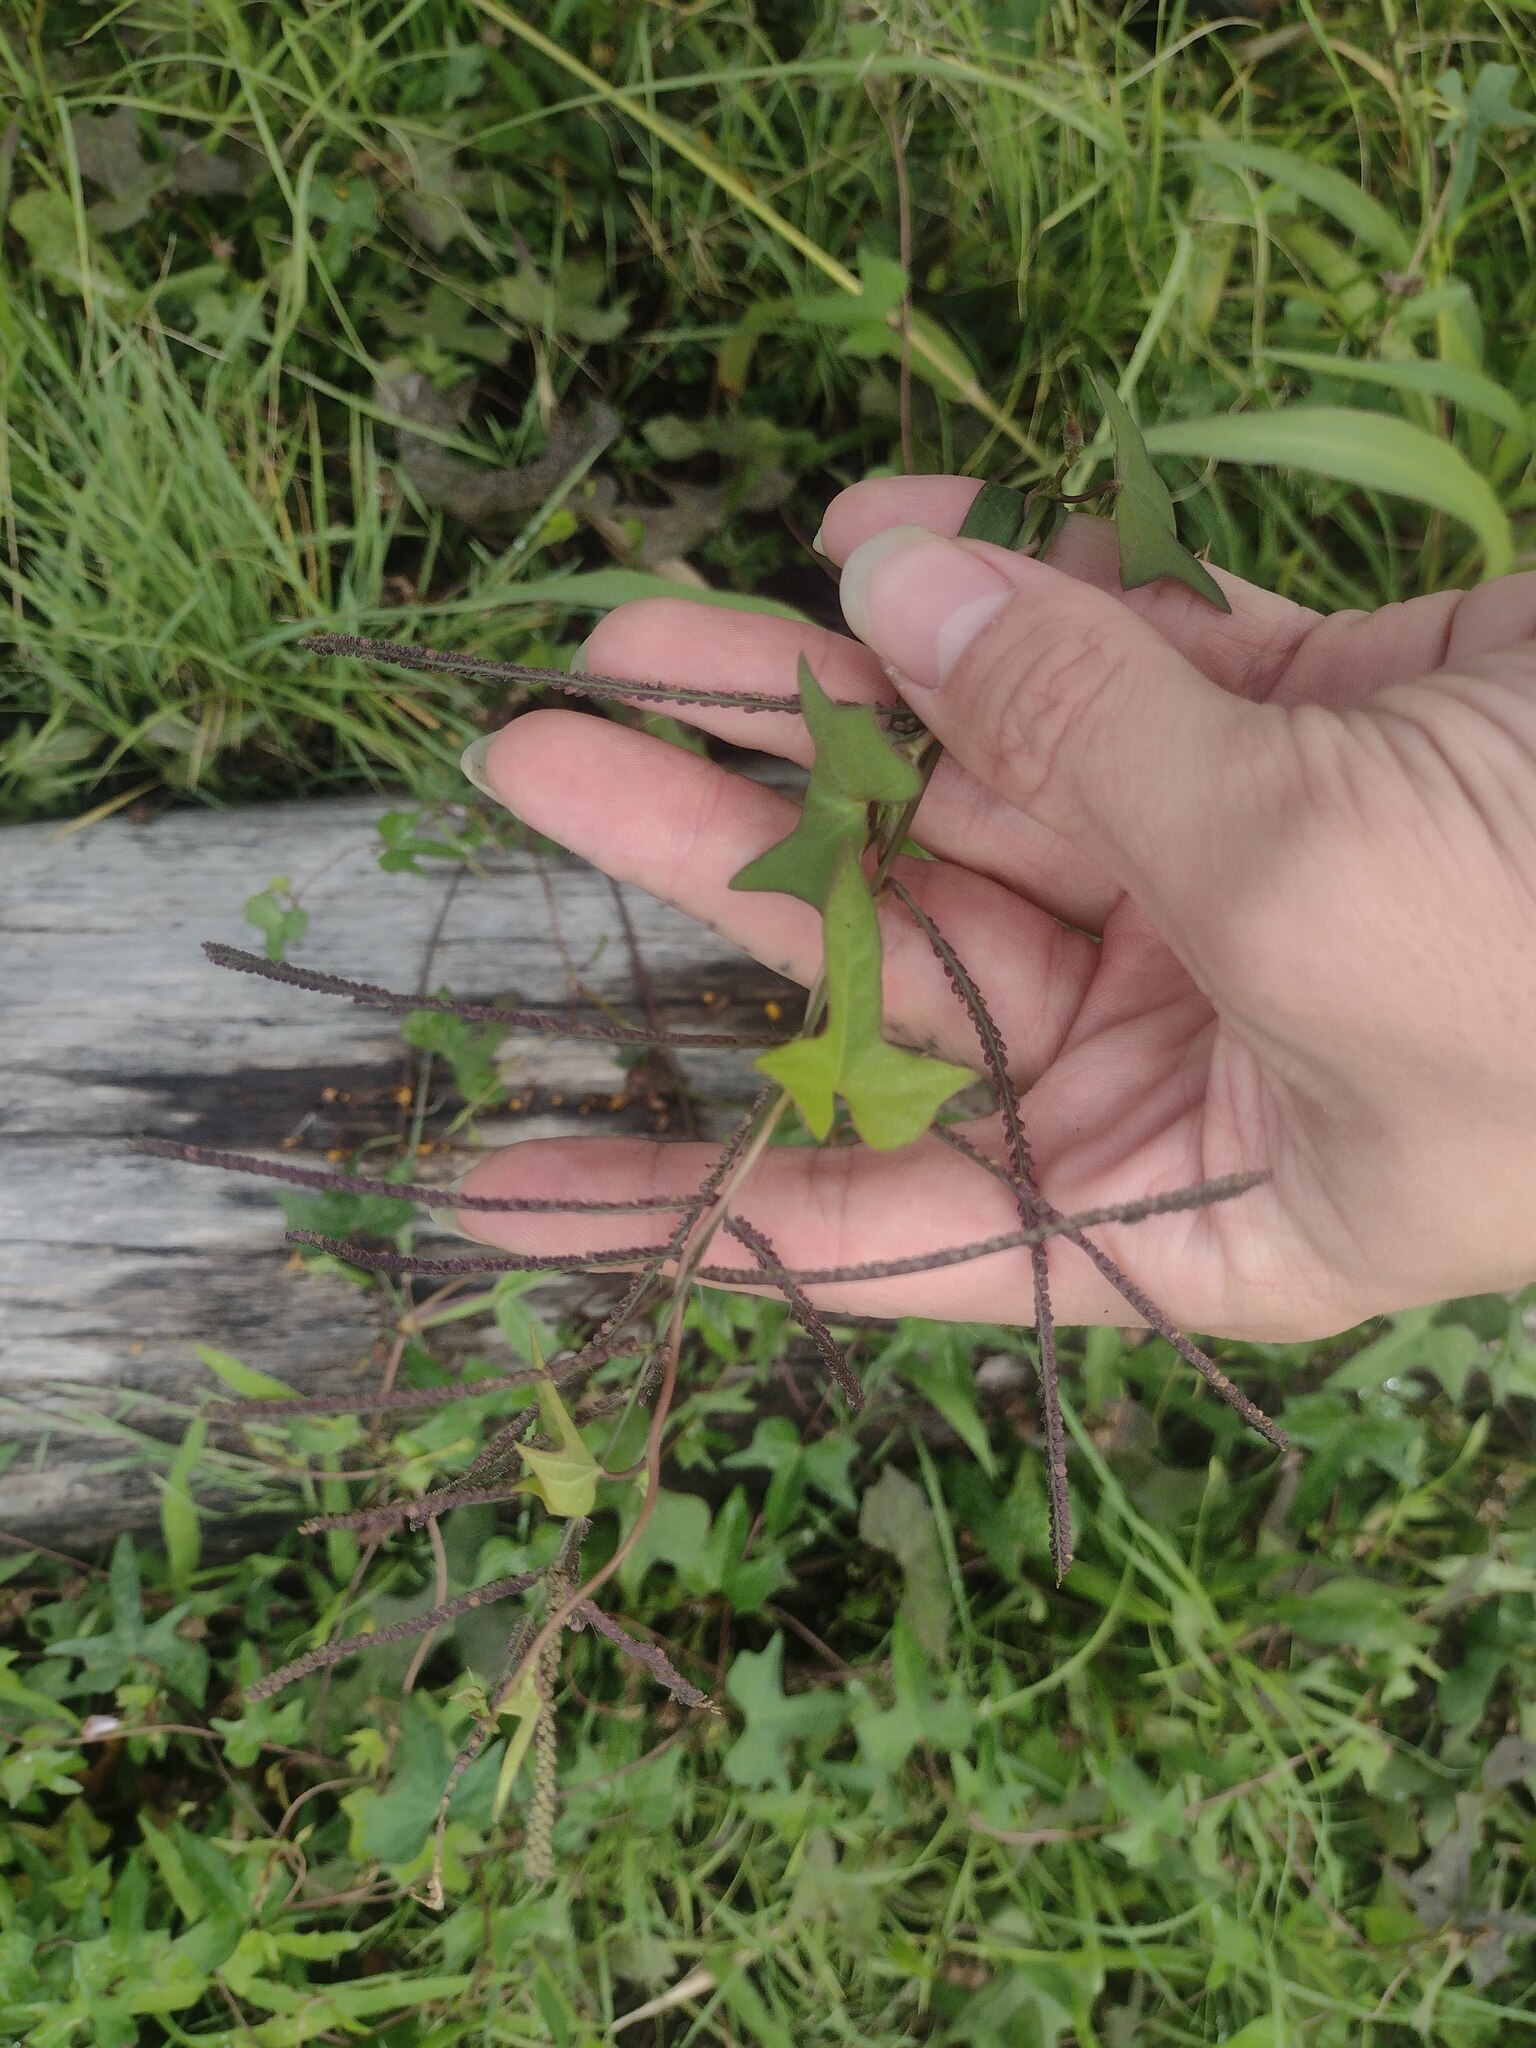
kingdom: Plantae
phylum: Tracheophyta
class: Liliopsida
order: Poales
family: Poaceae
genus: Paspalum
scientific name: Paspalum paniculatum
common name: Arrocillo
